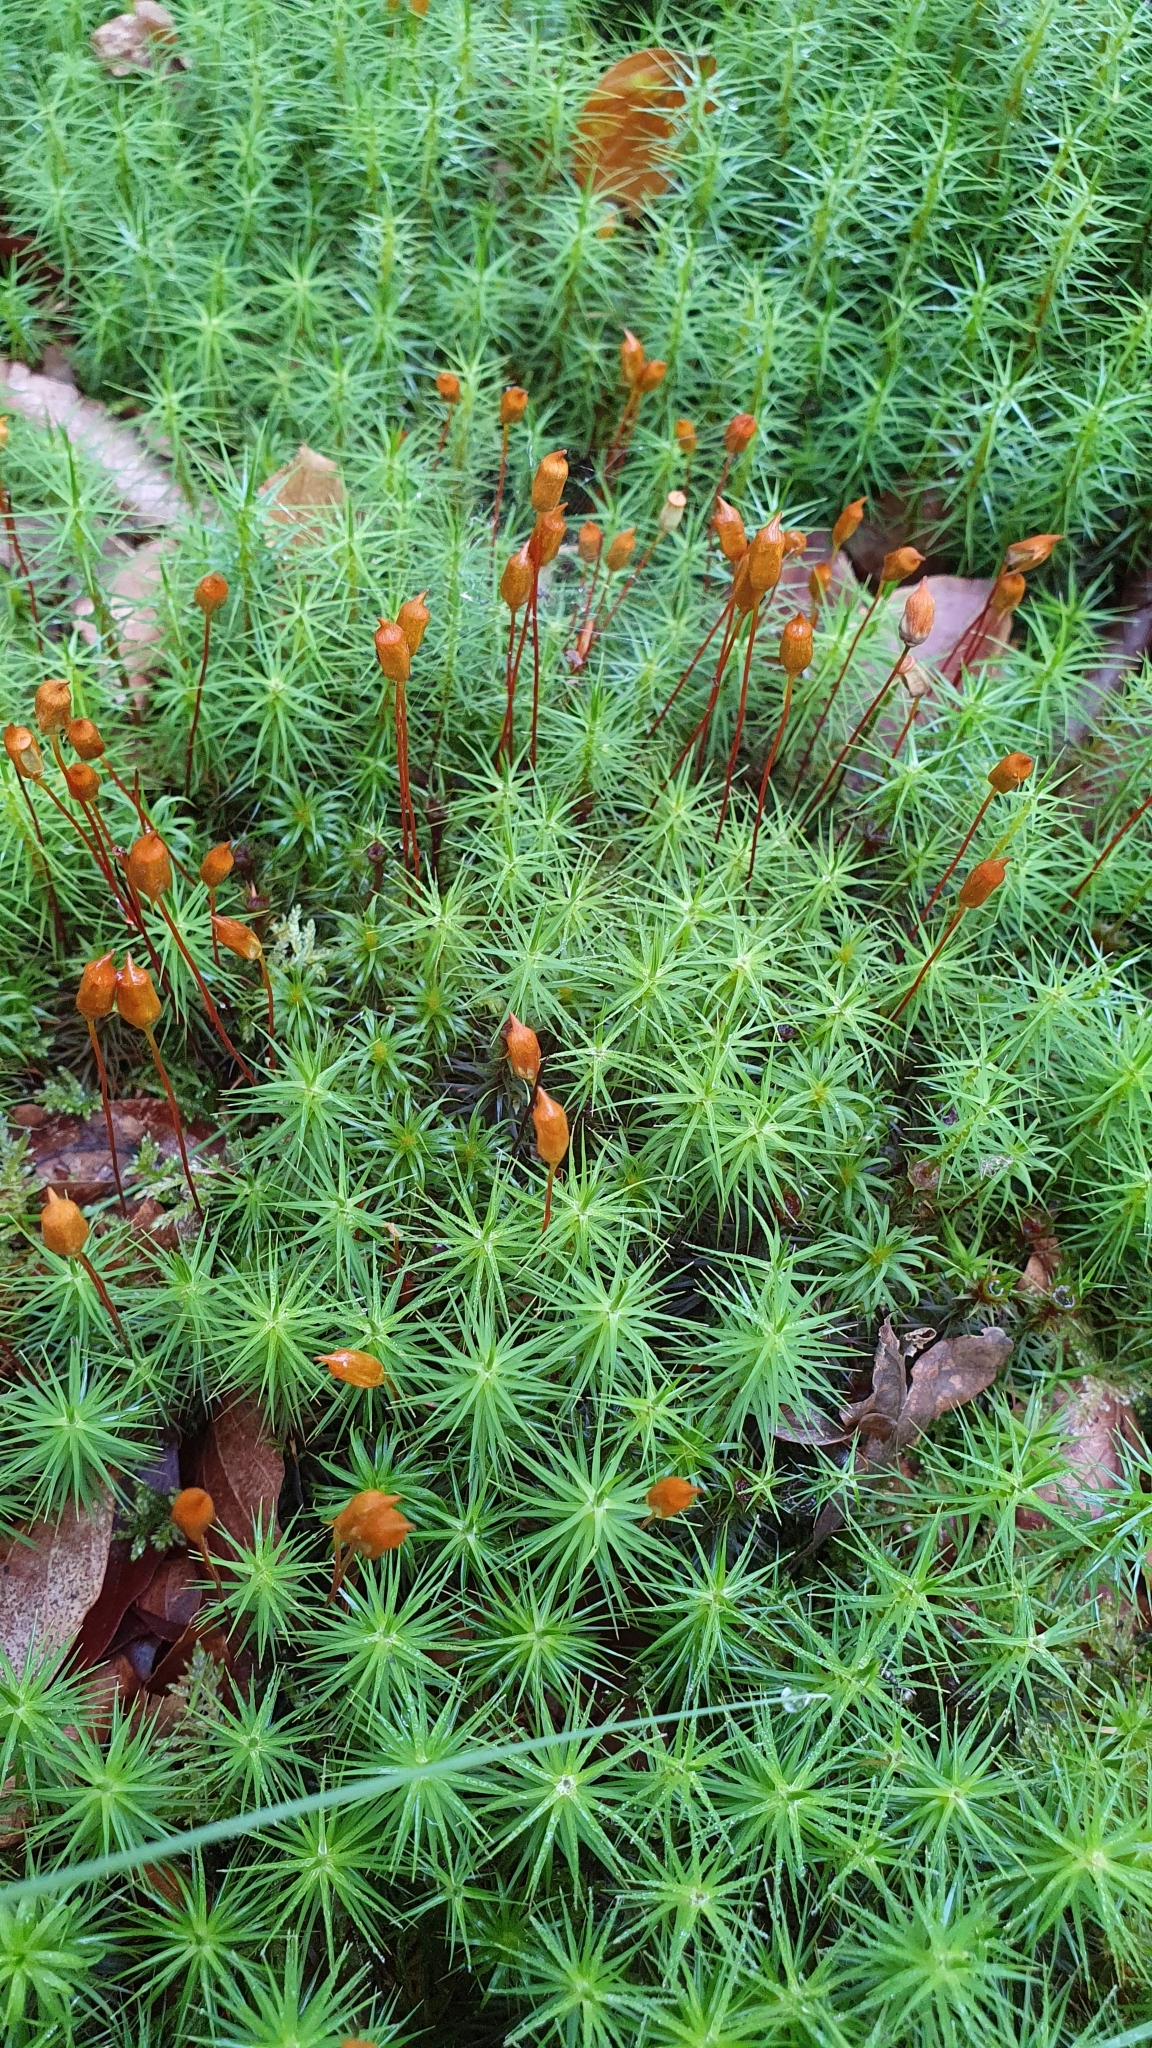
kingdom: Plantae
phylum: Bryophyta
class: Polytrichopsida
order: Polytrichales
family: Polytrichaceae
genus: Polytrichum
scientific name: Polytrichum commune
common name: Common haircap
